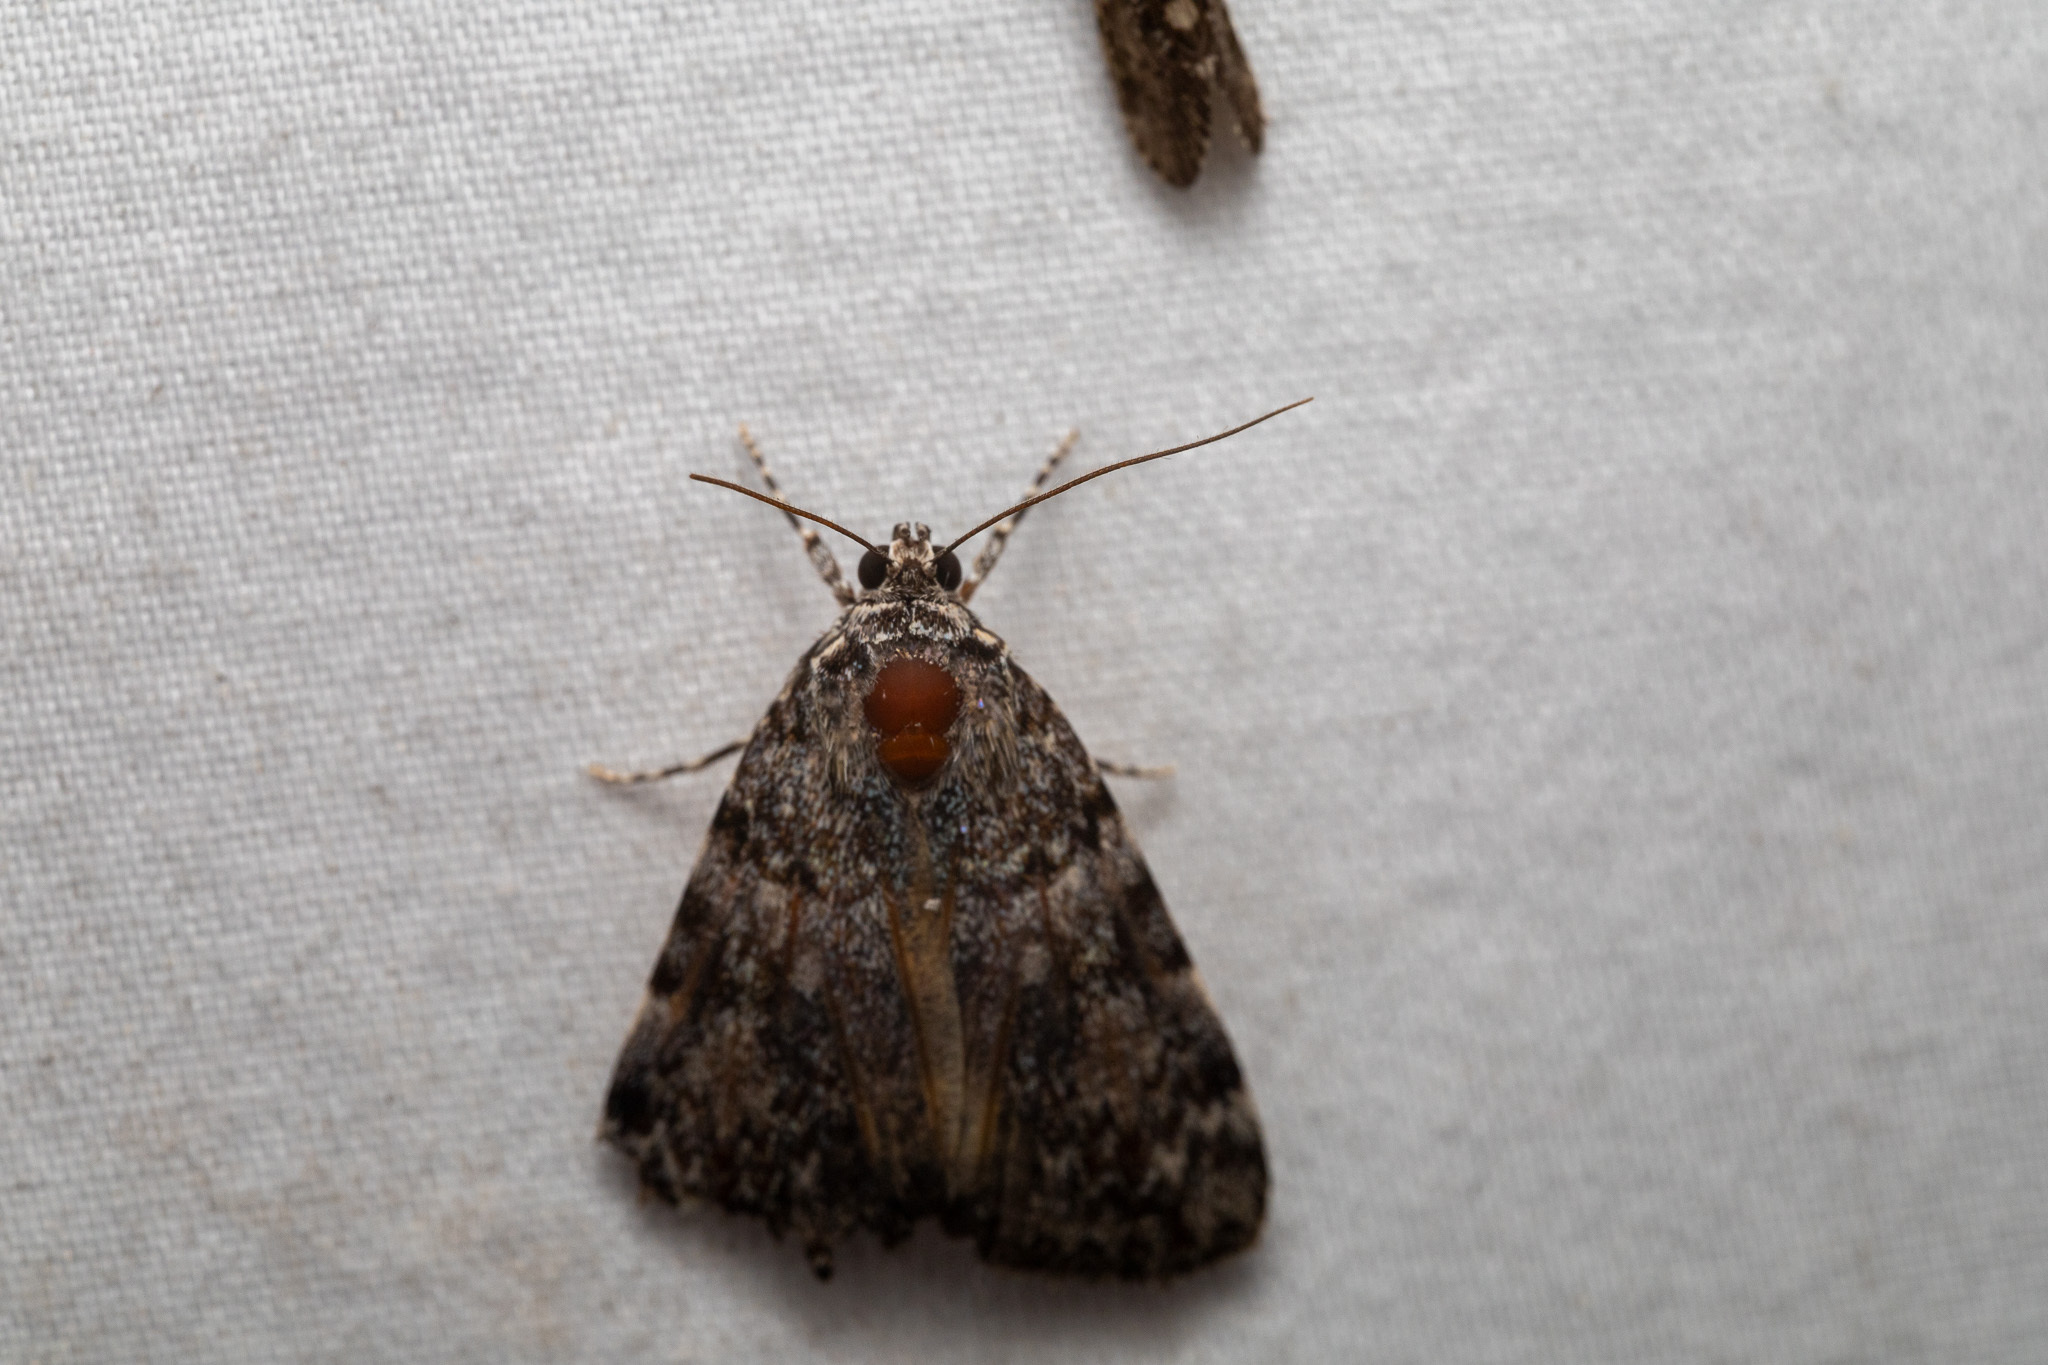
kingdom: Animalia
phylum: Arthropoda
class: Insecta
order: Lepidoptera
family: Erebidae
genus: Catocala
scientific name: Catocala lineella
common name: Little lined underwing
